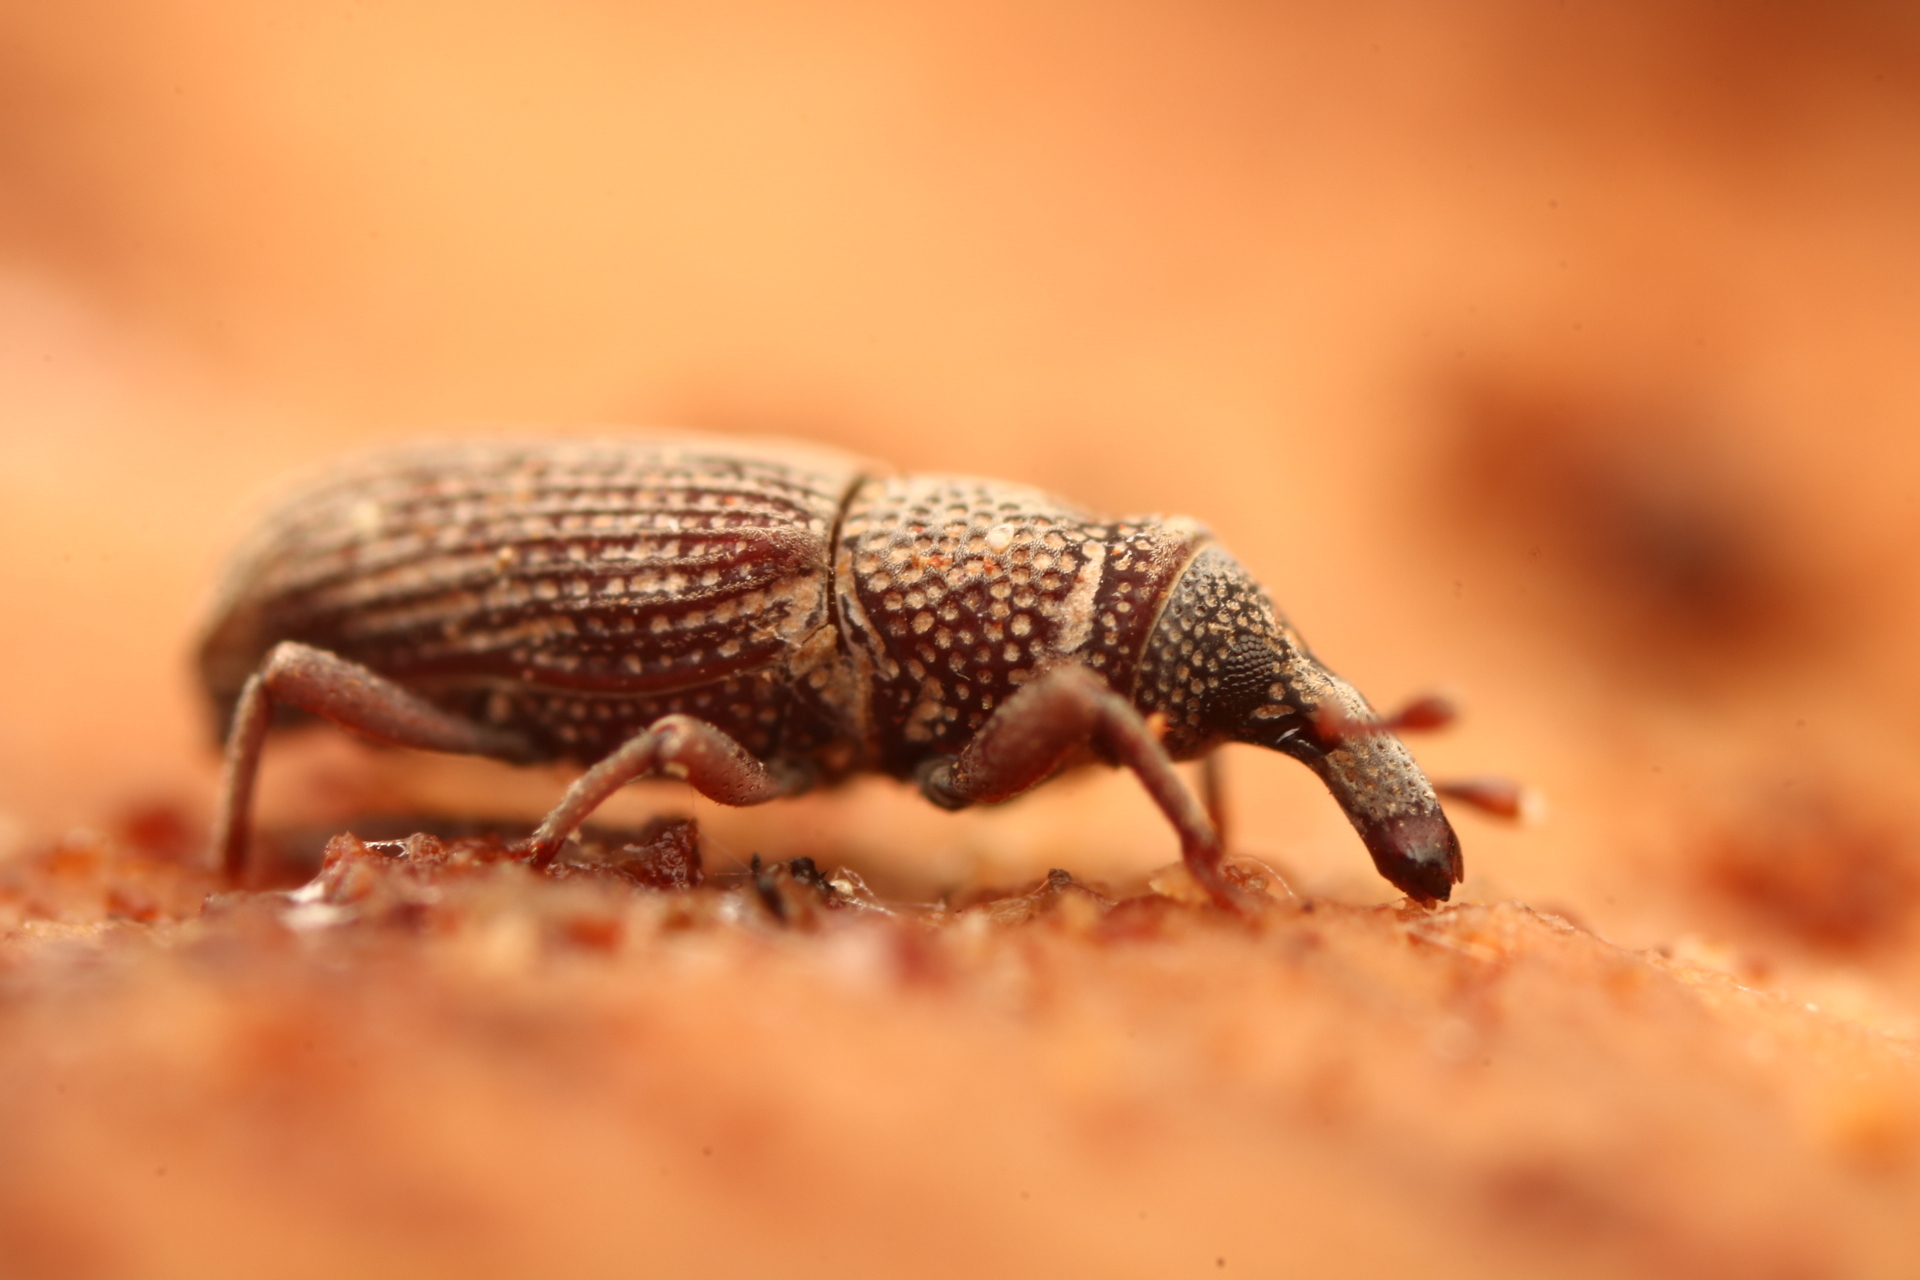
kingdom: Animalia
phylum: Arthropoda
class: Insecta
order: Coleoptera
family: Dryophthoridae
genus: Dryophthorus
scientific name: Dryophthorus americanus
